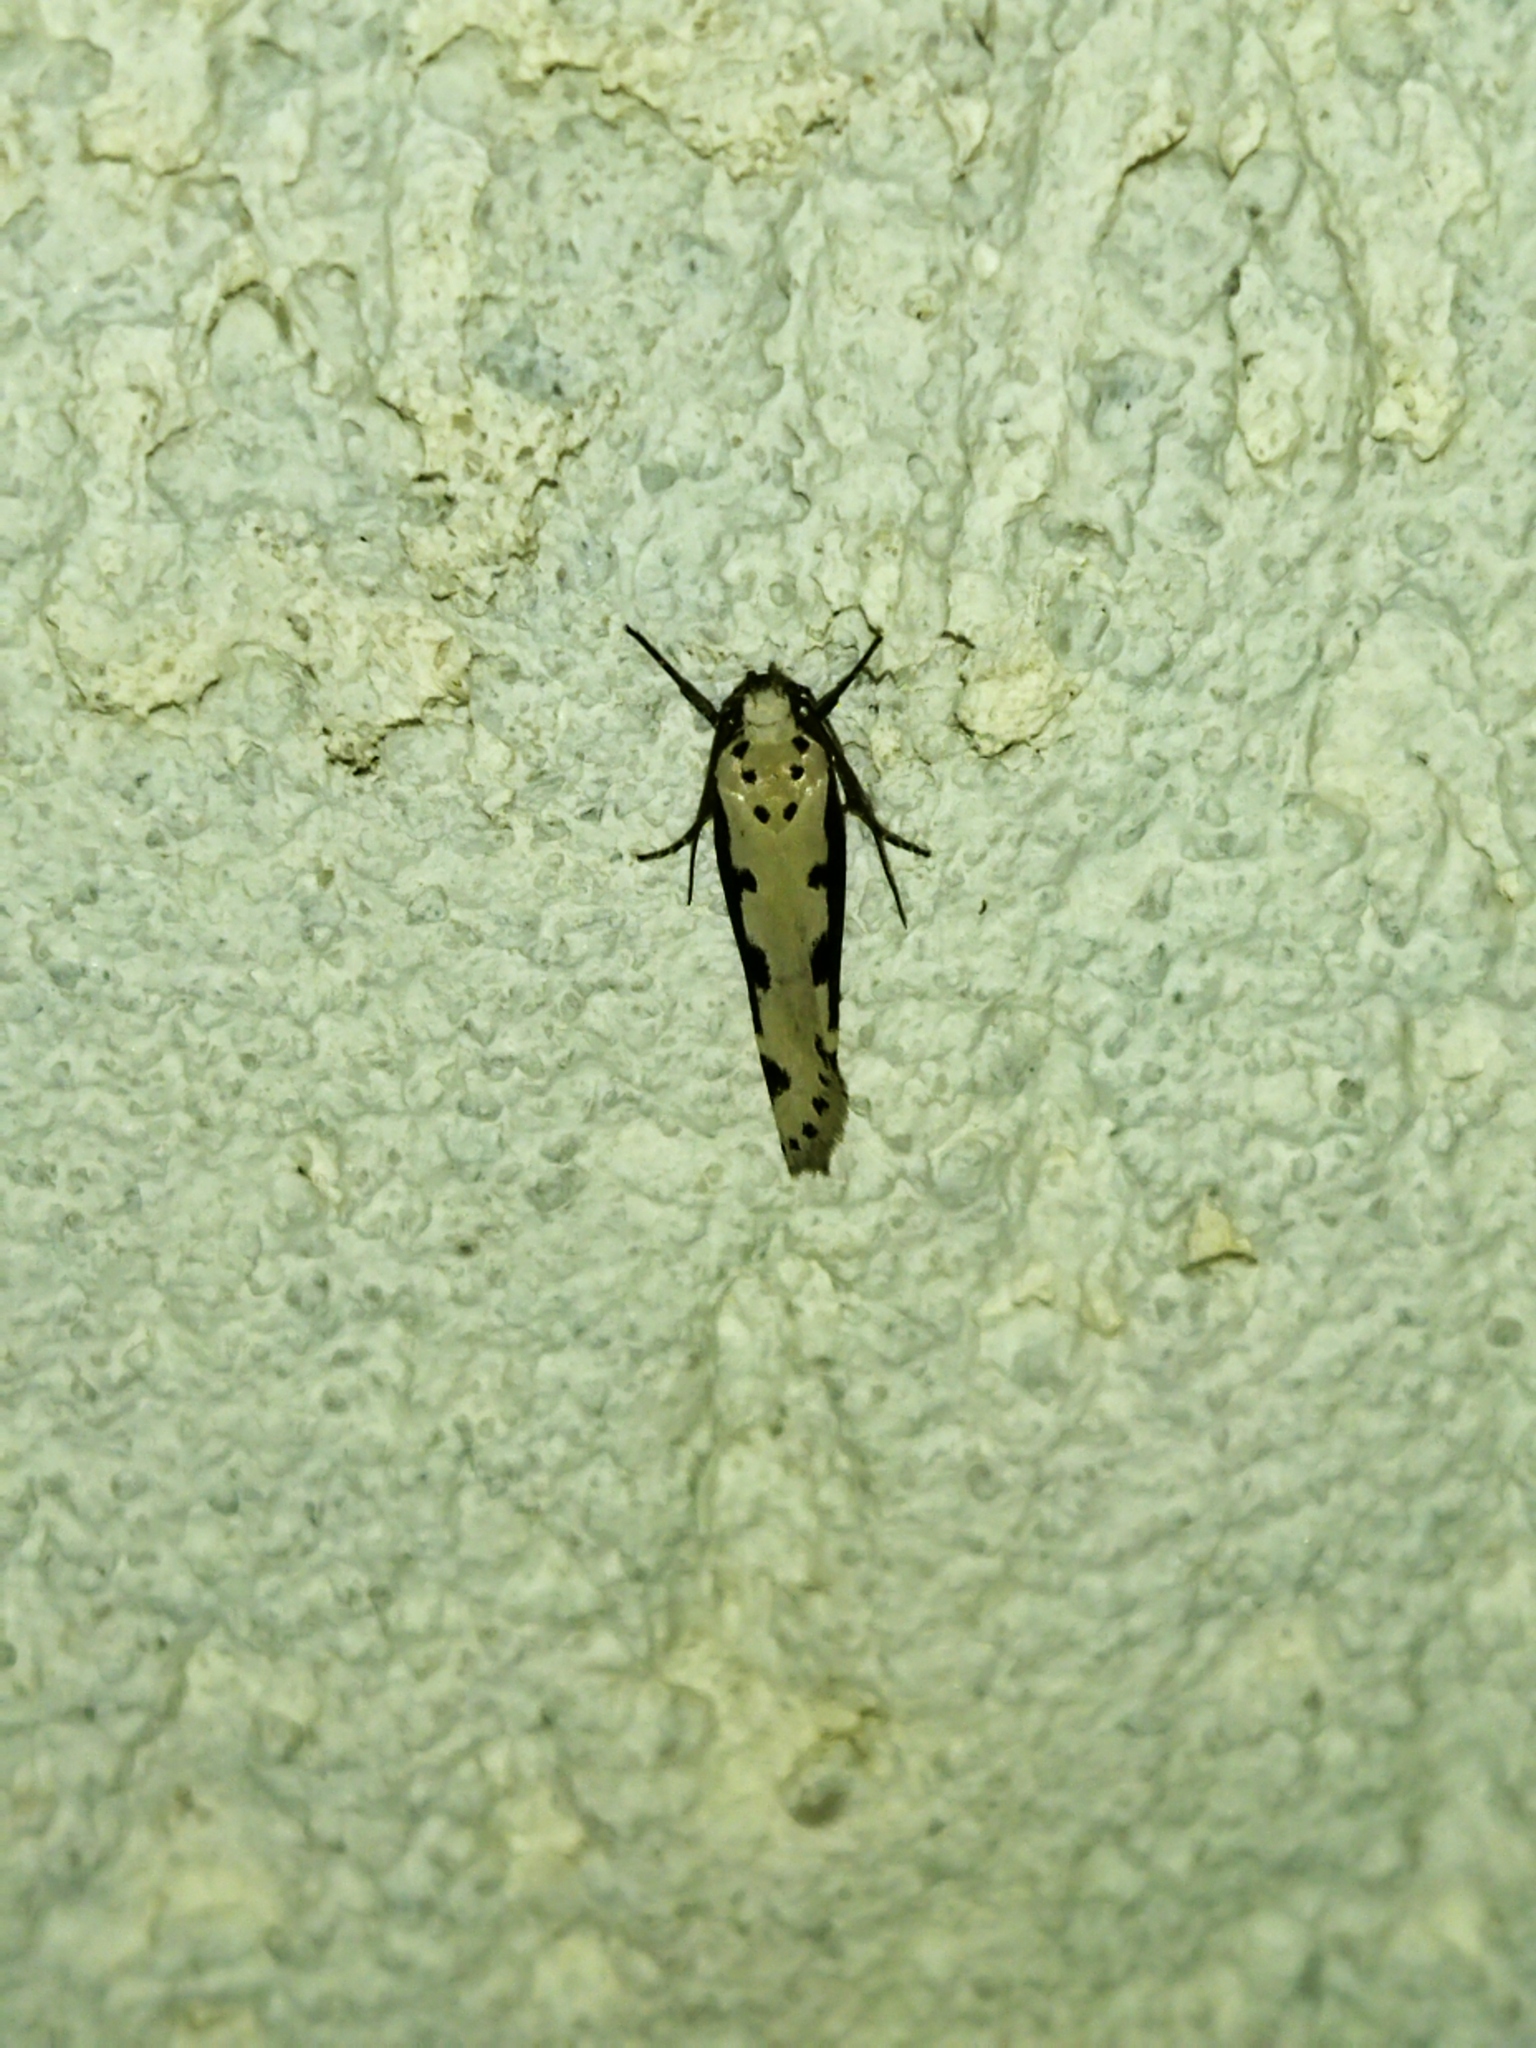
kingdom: Animalia
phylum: Arthropoda
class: Insecta
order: Lepidoptera
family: Ethmiidae
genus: Ethmia
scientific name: Ethmia bipunctella
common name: Bordered ermel
